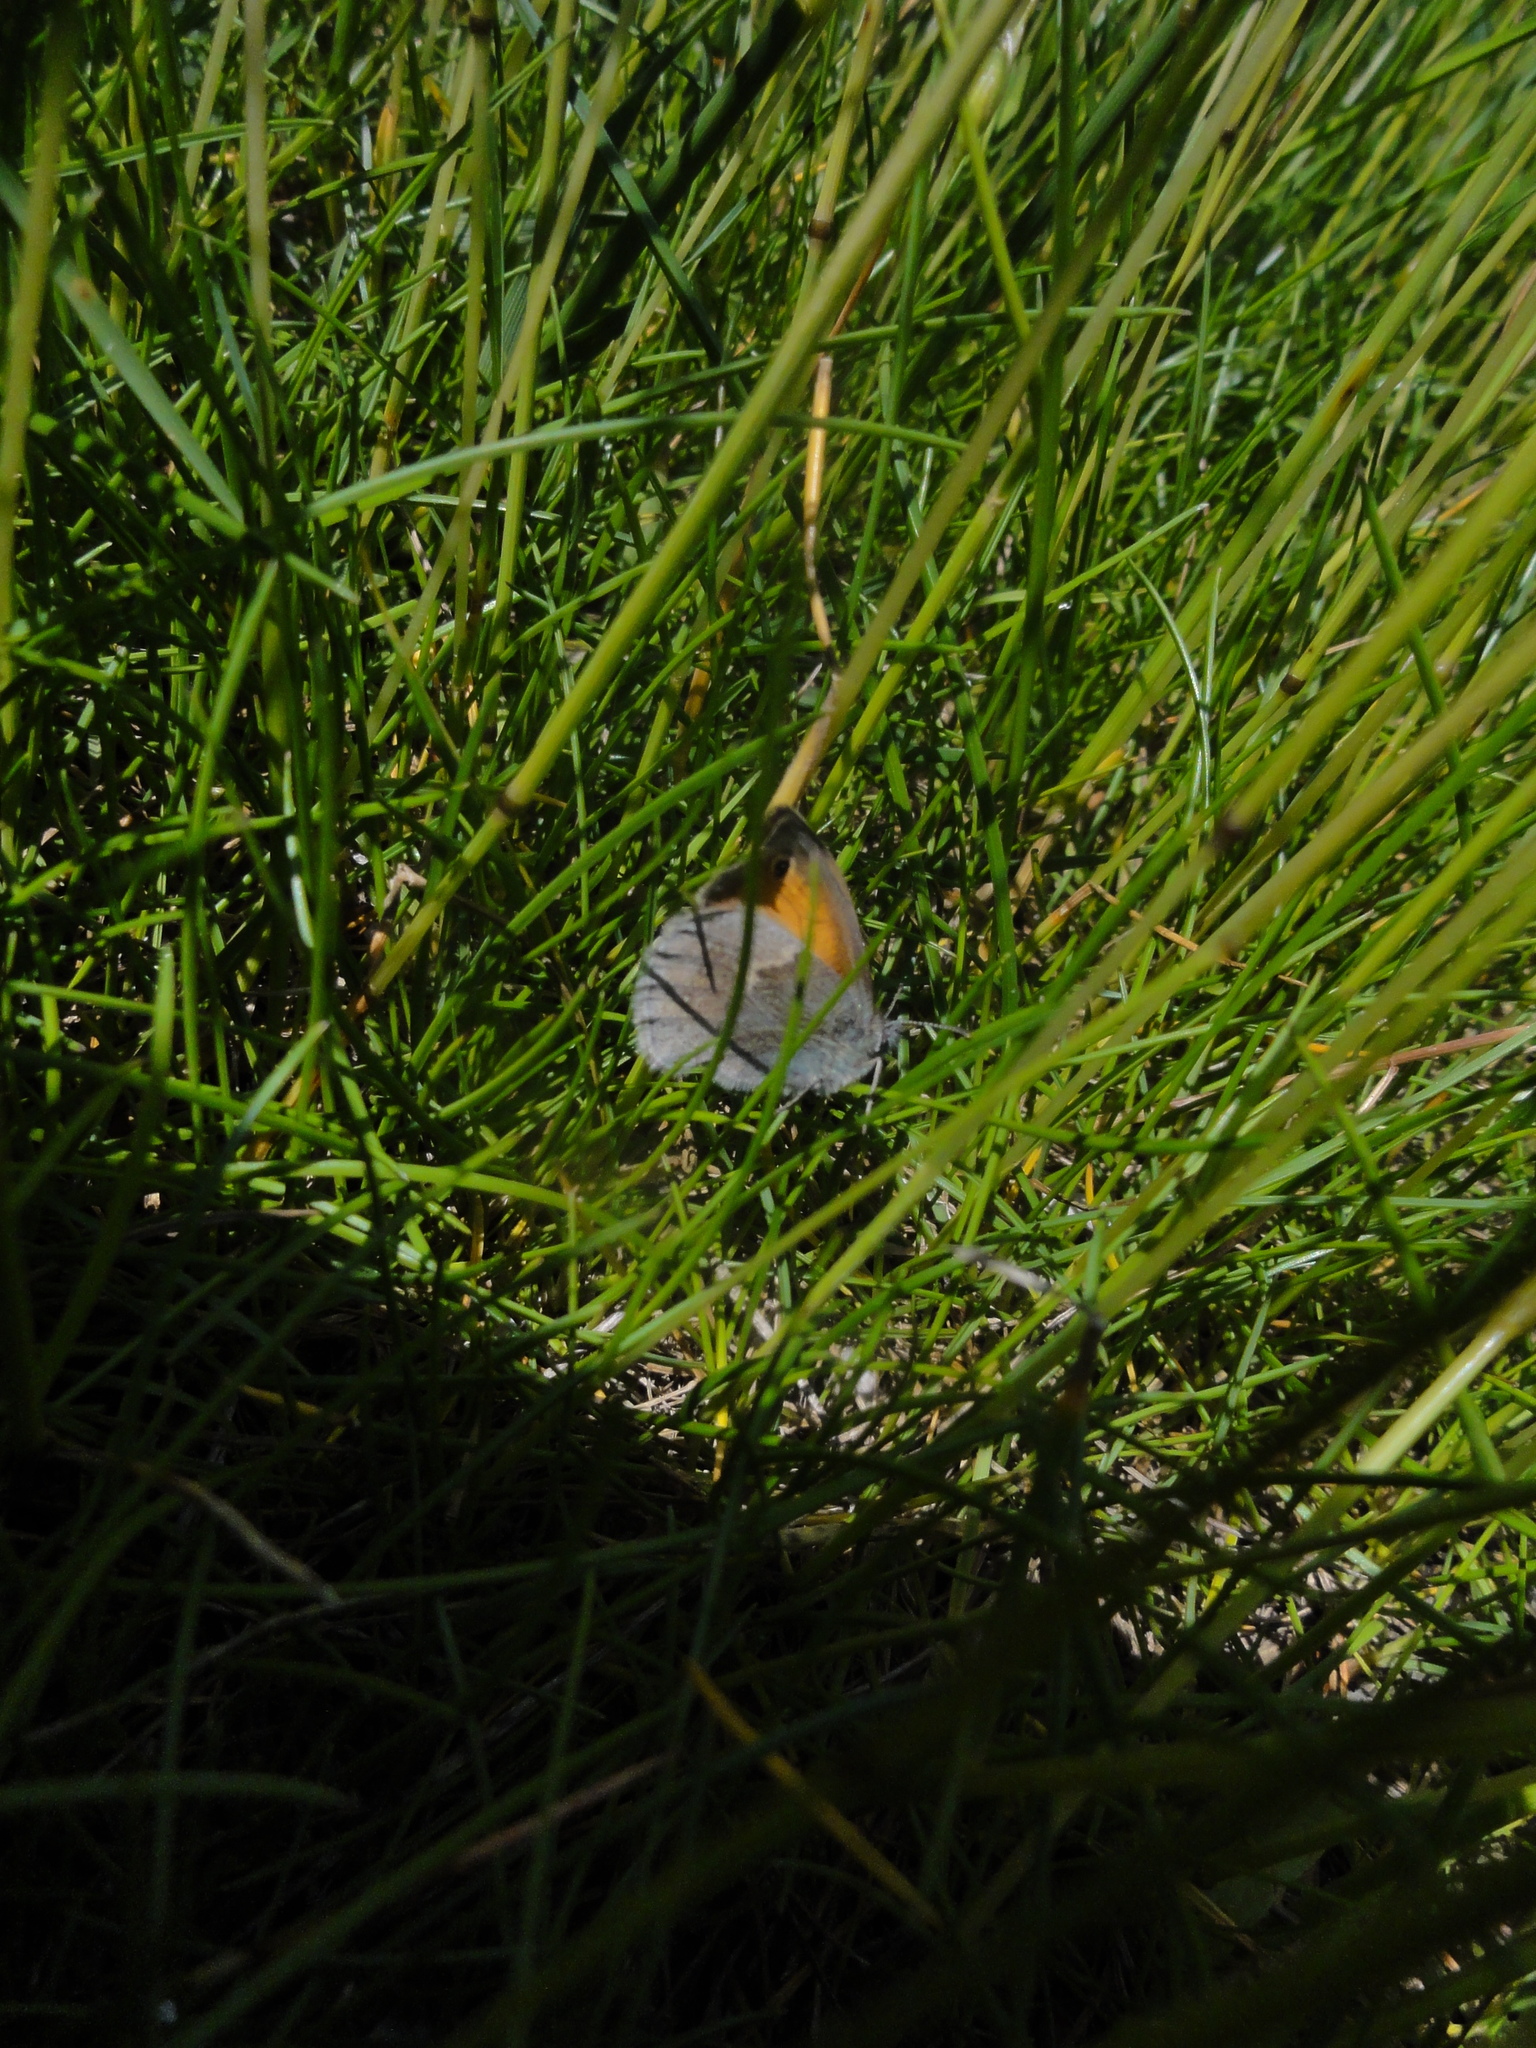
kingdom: Animalia
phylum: Arthropoda
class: Insecta
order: Lepidoptera
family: Nymphalidae
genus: Coenonympha
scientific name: Coenonympha pamphilus
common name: Small heath
